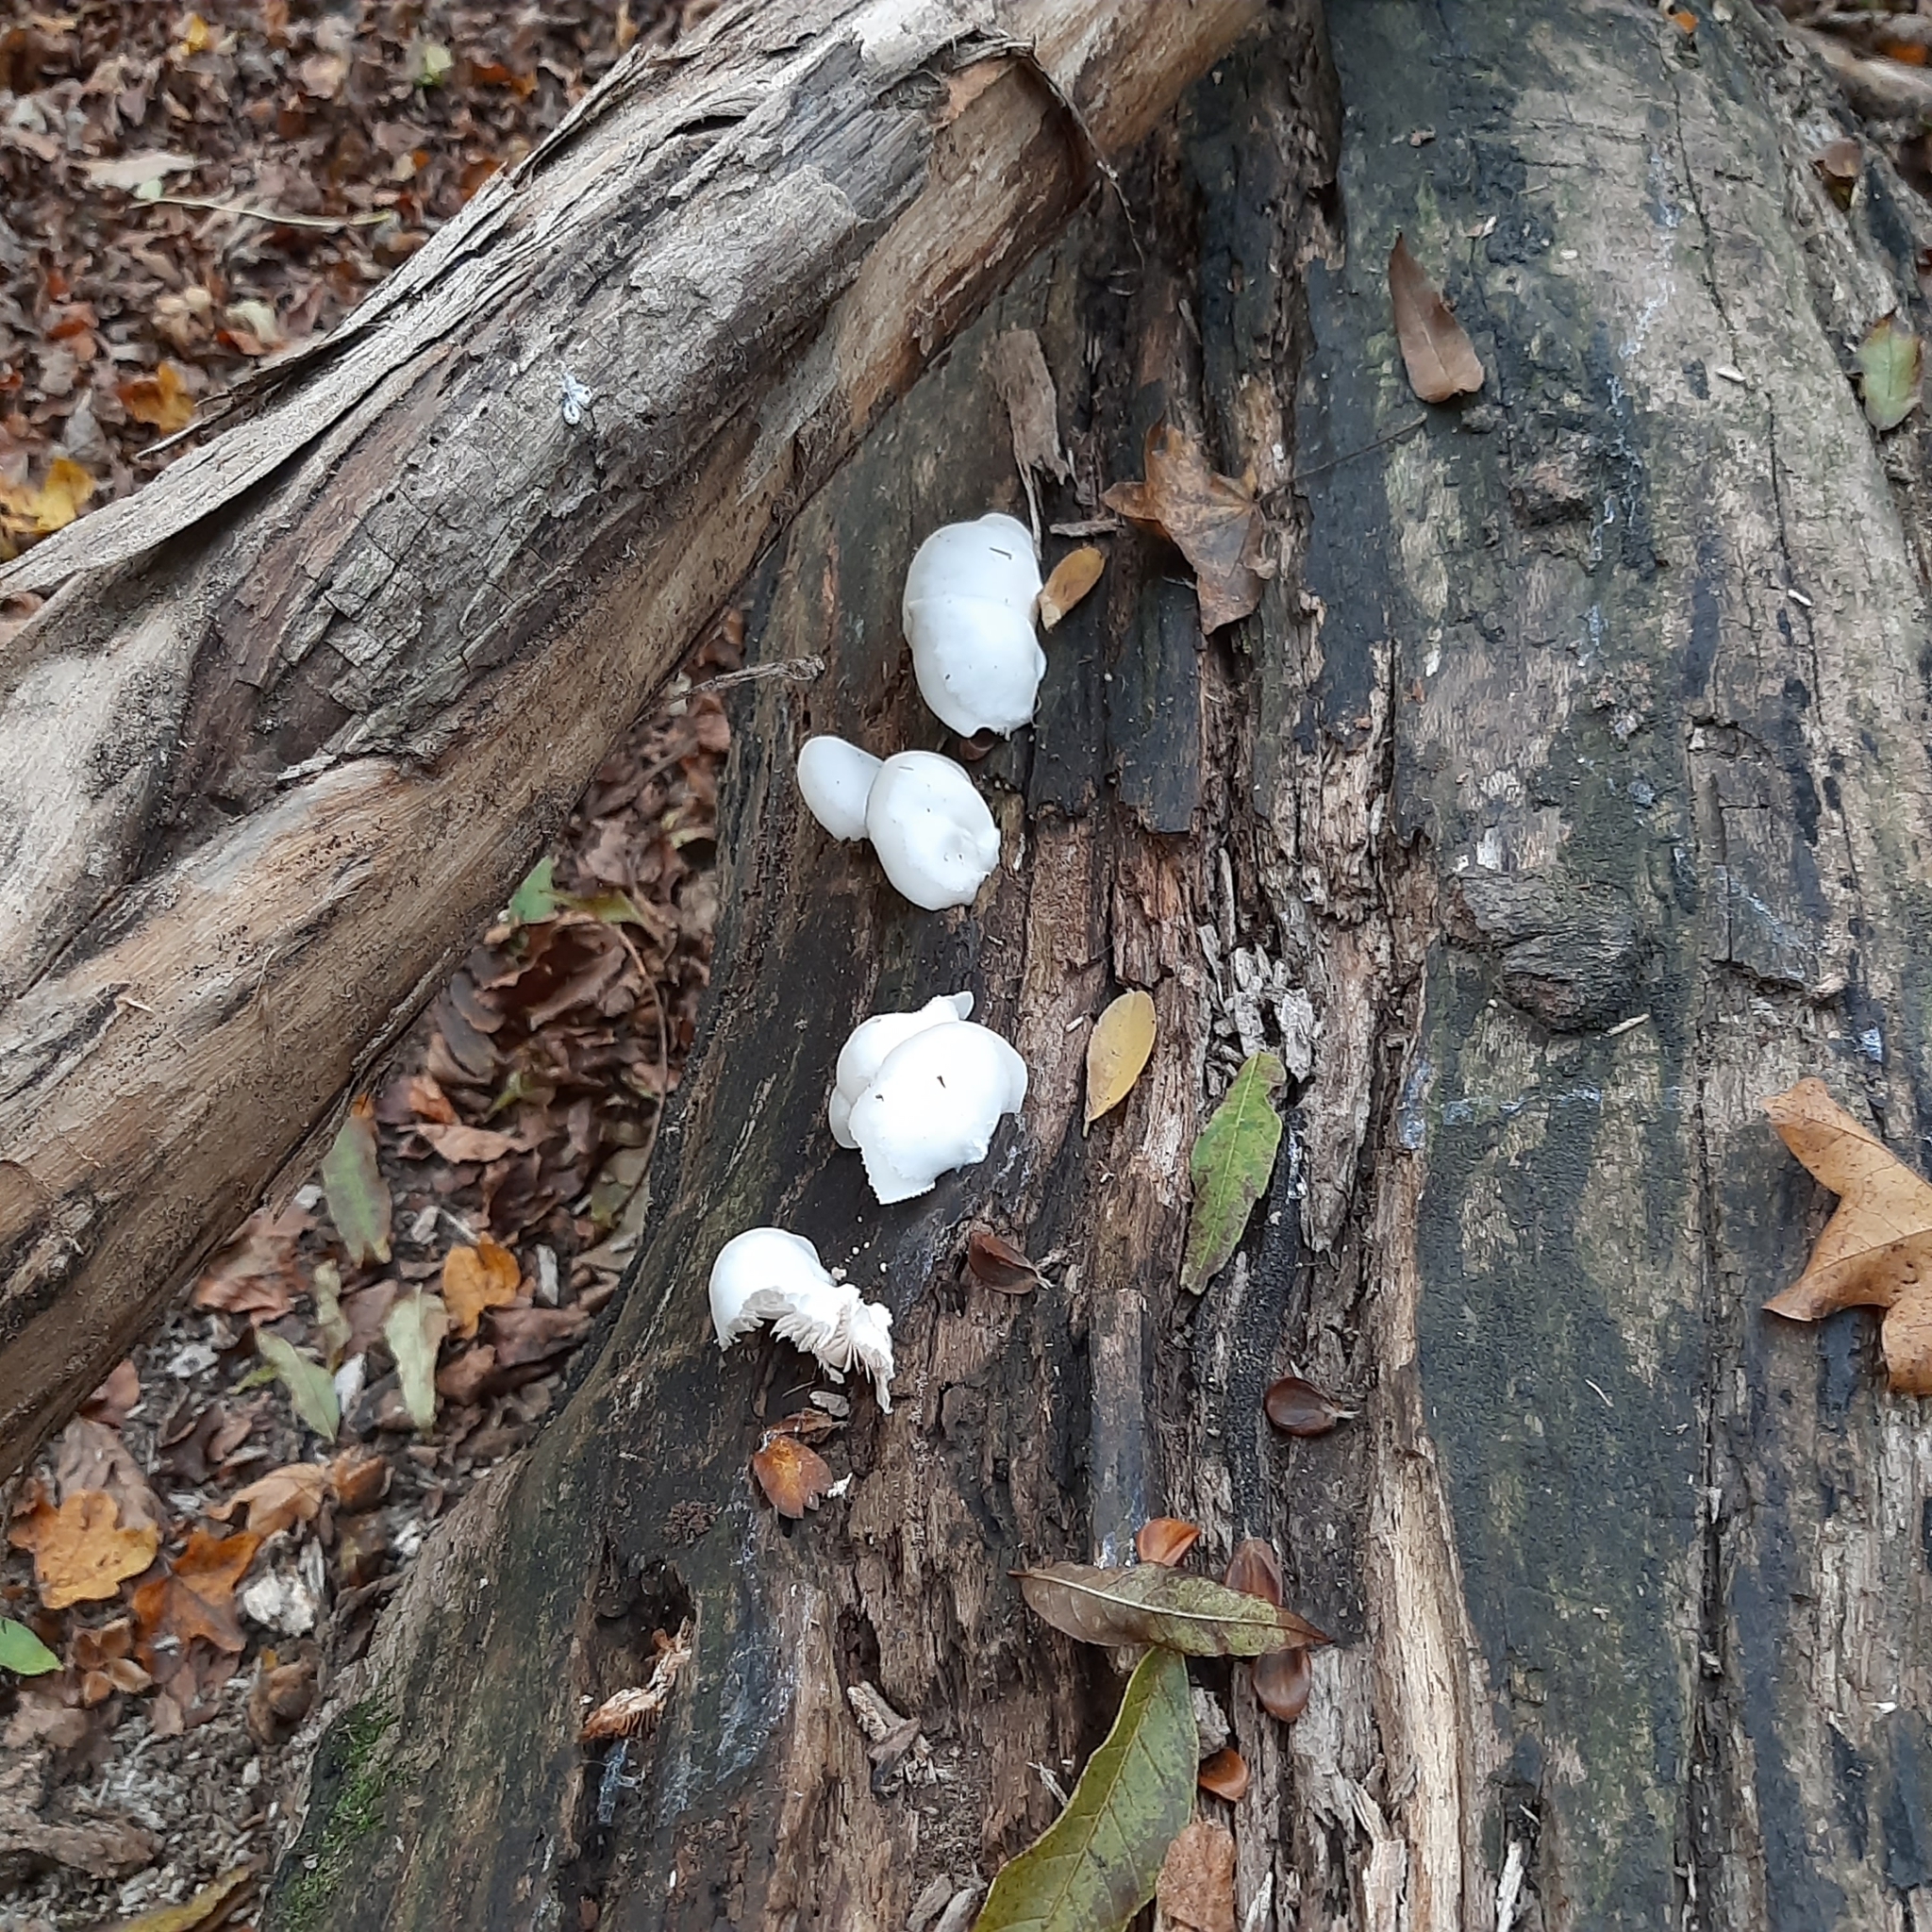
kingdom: Fungi
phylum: Basidiomycota
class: Agaricomycetes
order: Agaricales
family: Crepidotaceae
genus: Crepidotus
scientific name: Crepidotus
